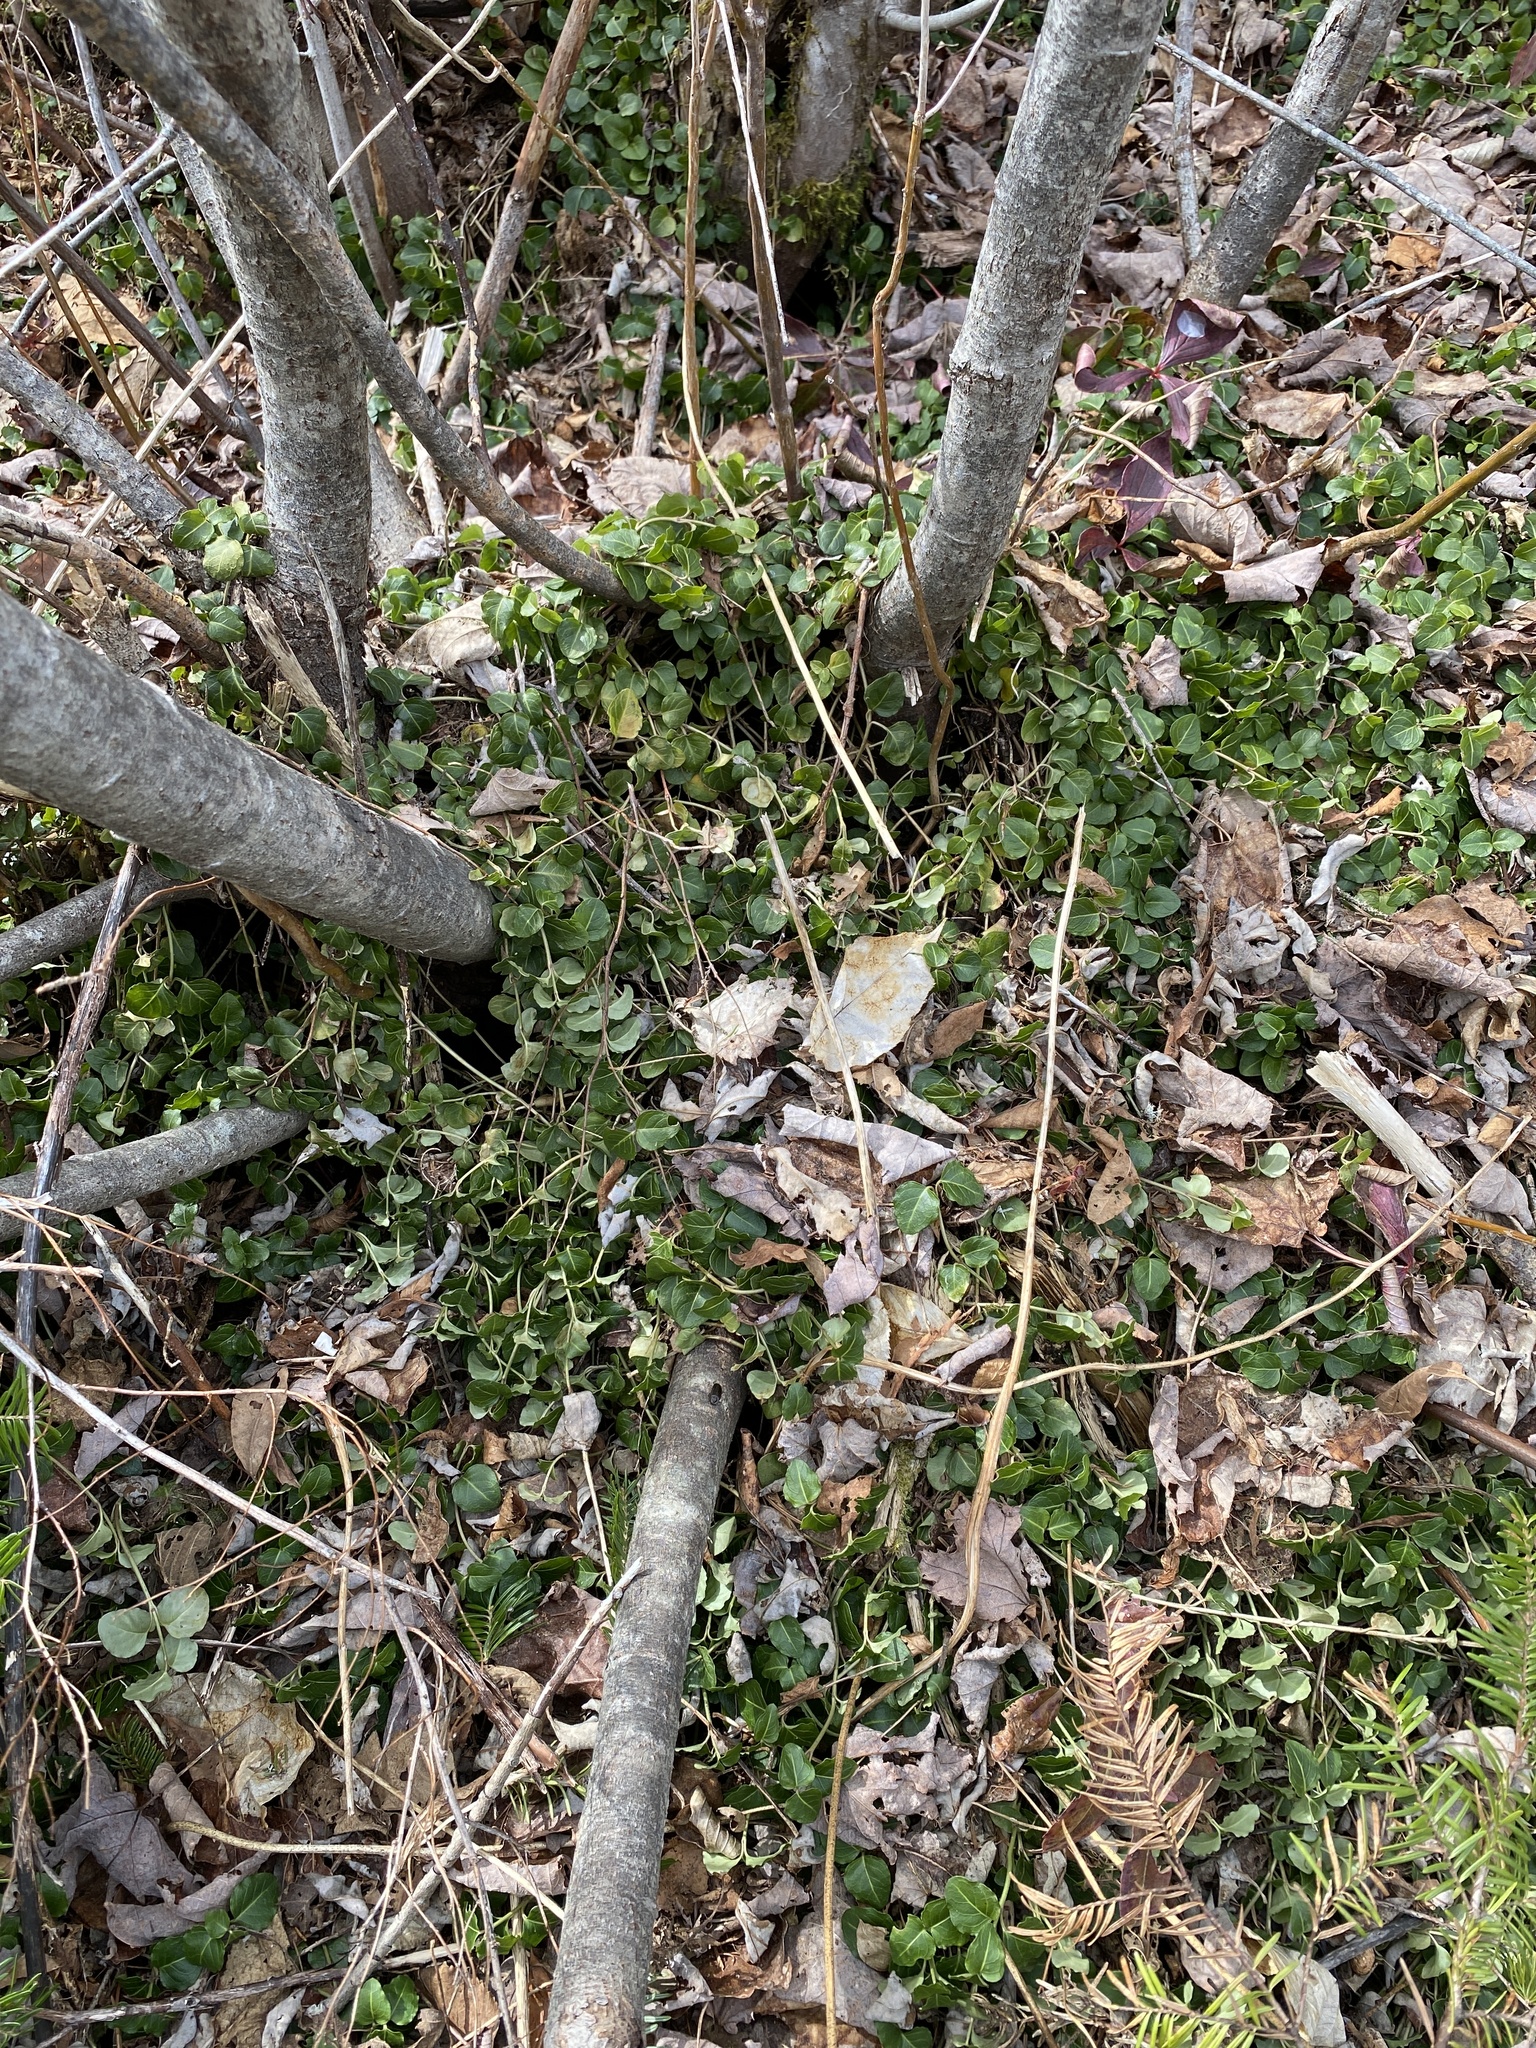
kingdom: Plantae
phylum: Tracheophyta
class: Magnoliopsida
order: Gentianales
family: Rubiaceae
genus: Mitchella
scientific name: Mitchella repens
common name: Partridge-berry
